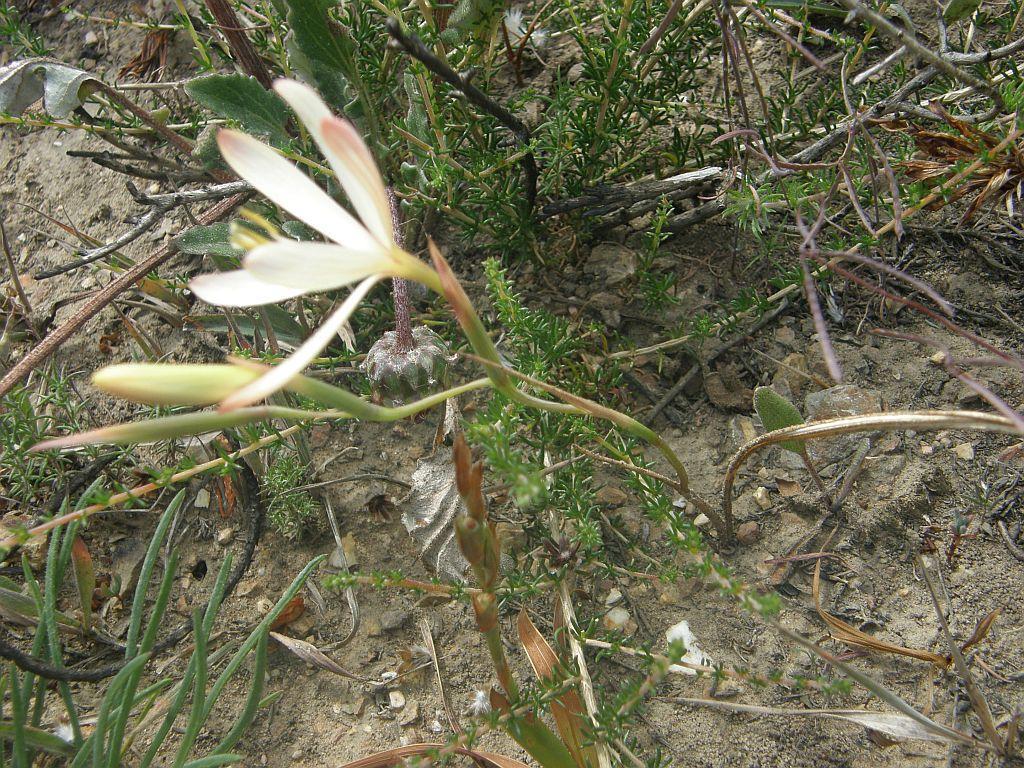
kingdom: Plantae
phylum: Tracheophyta
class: Liliopsida
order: Asparagales
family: Iridaceae
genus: Geissorhiza
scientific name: Geissorhiza schinzii
